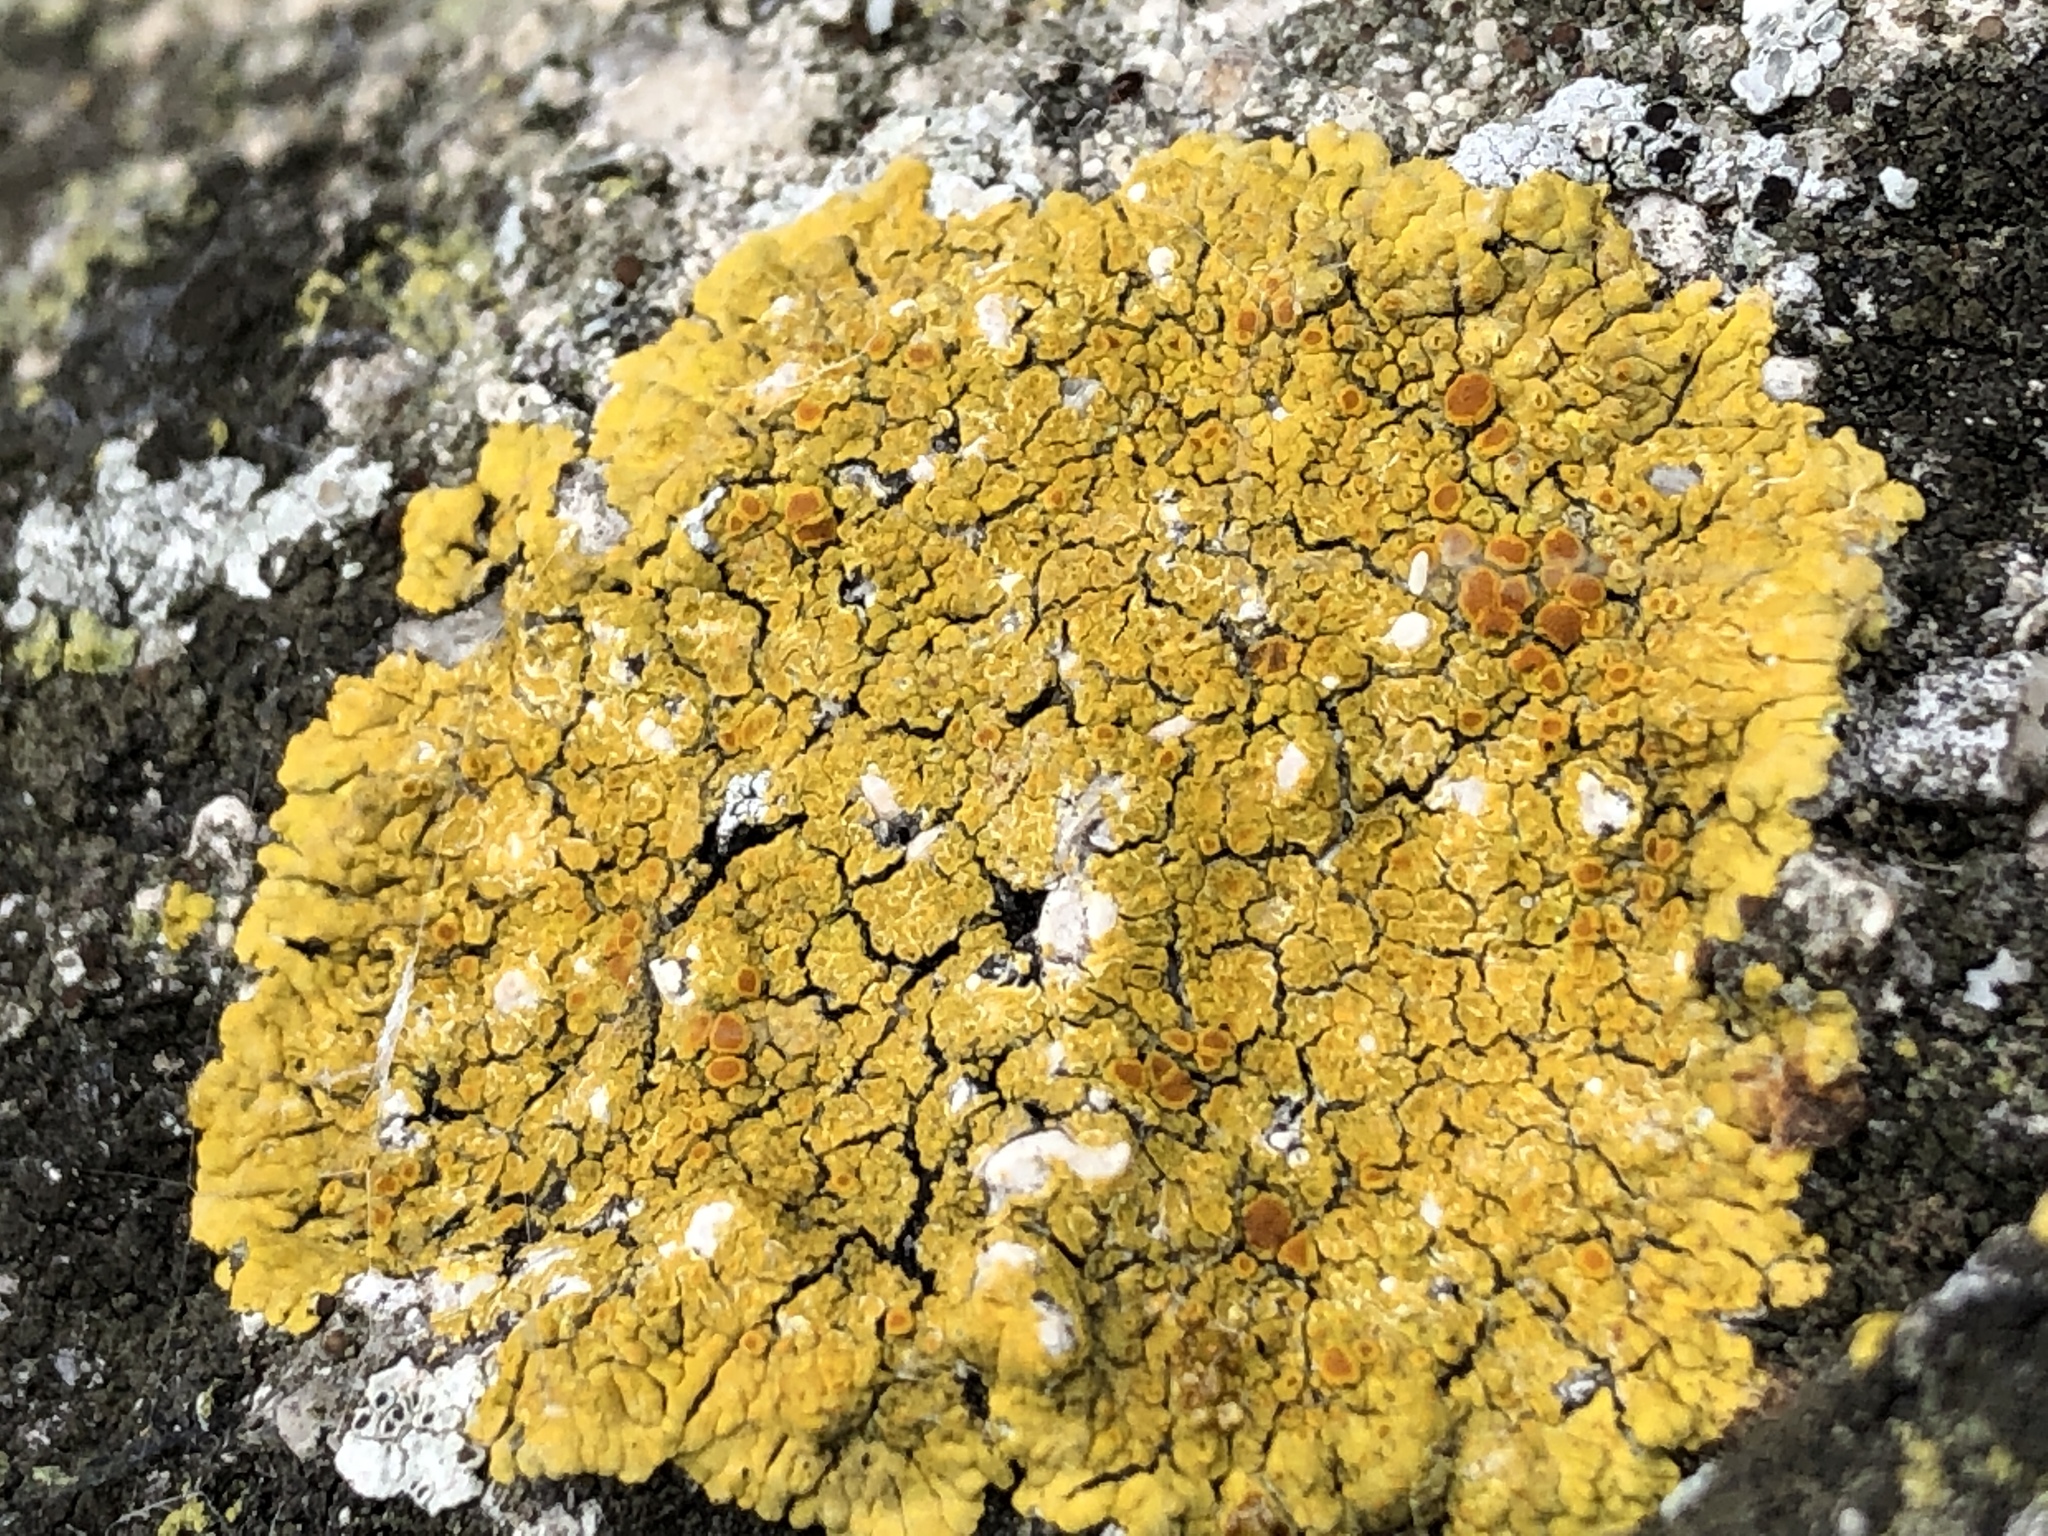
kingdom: Fungi
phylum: Ascomycota
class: Lecanoromycetes
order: Teloschistales
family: Teloschistaceae
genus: Variospora
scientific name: Variospora flavescens
